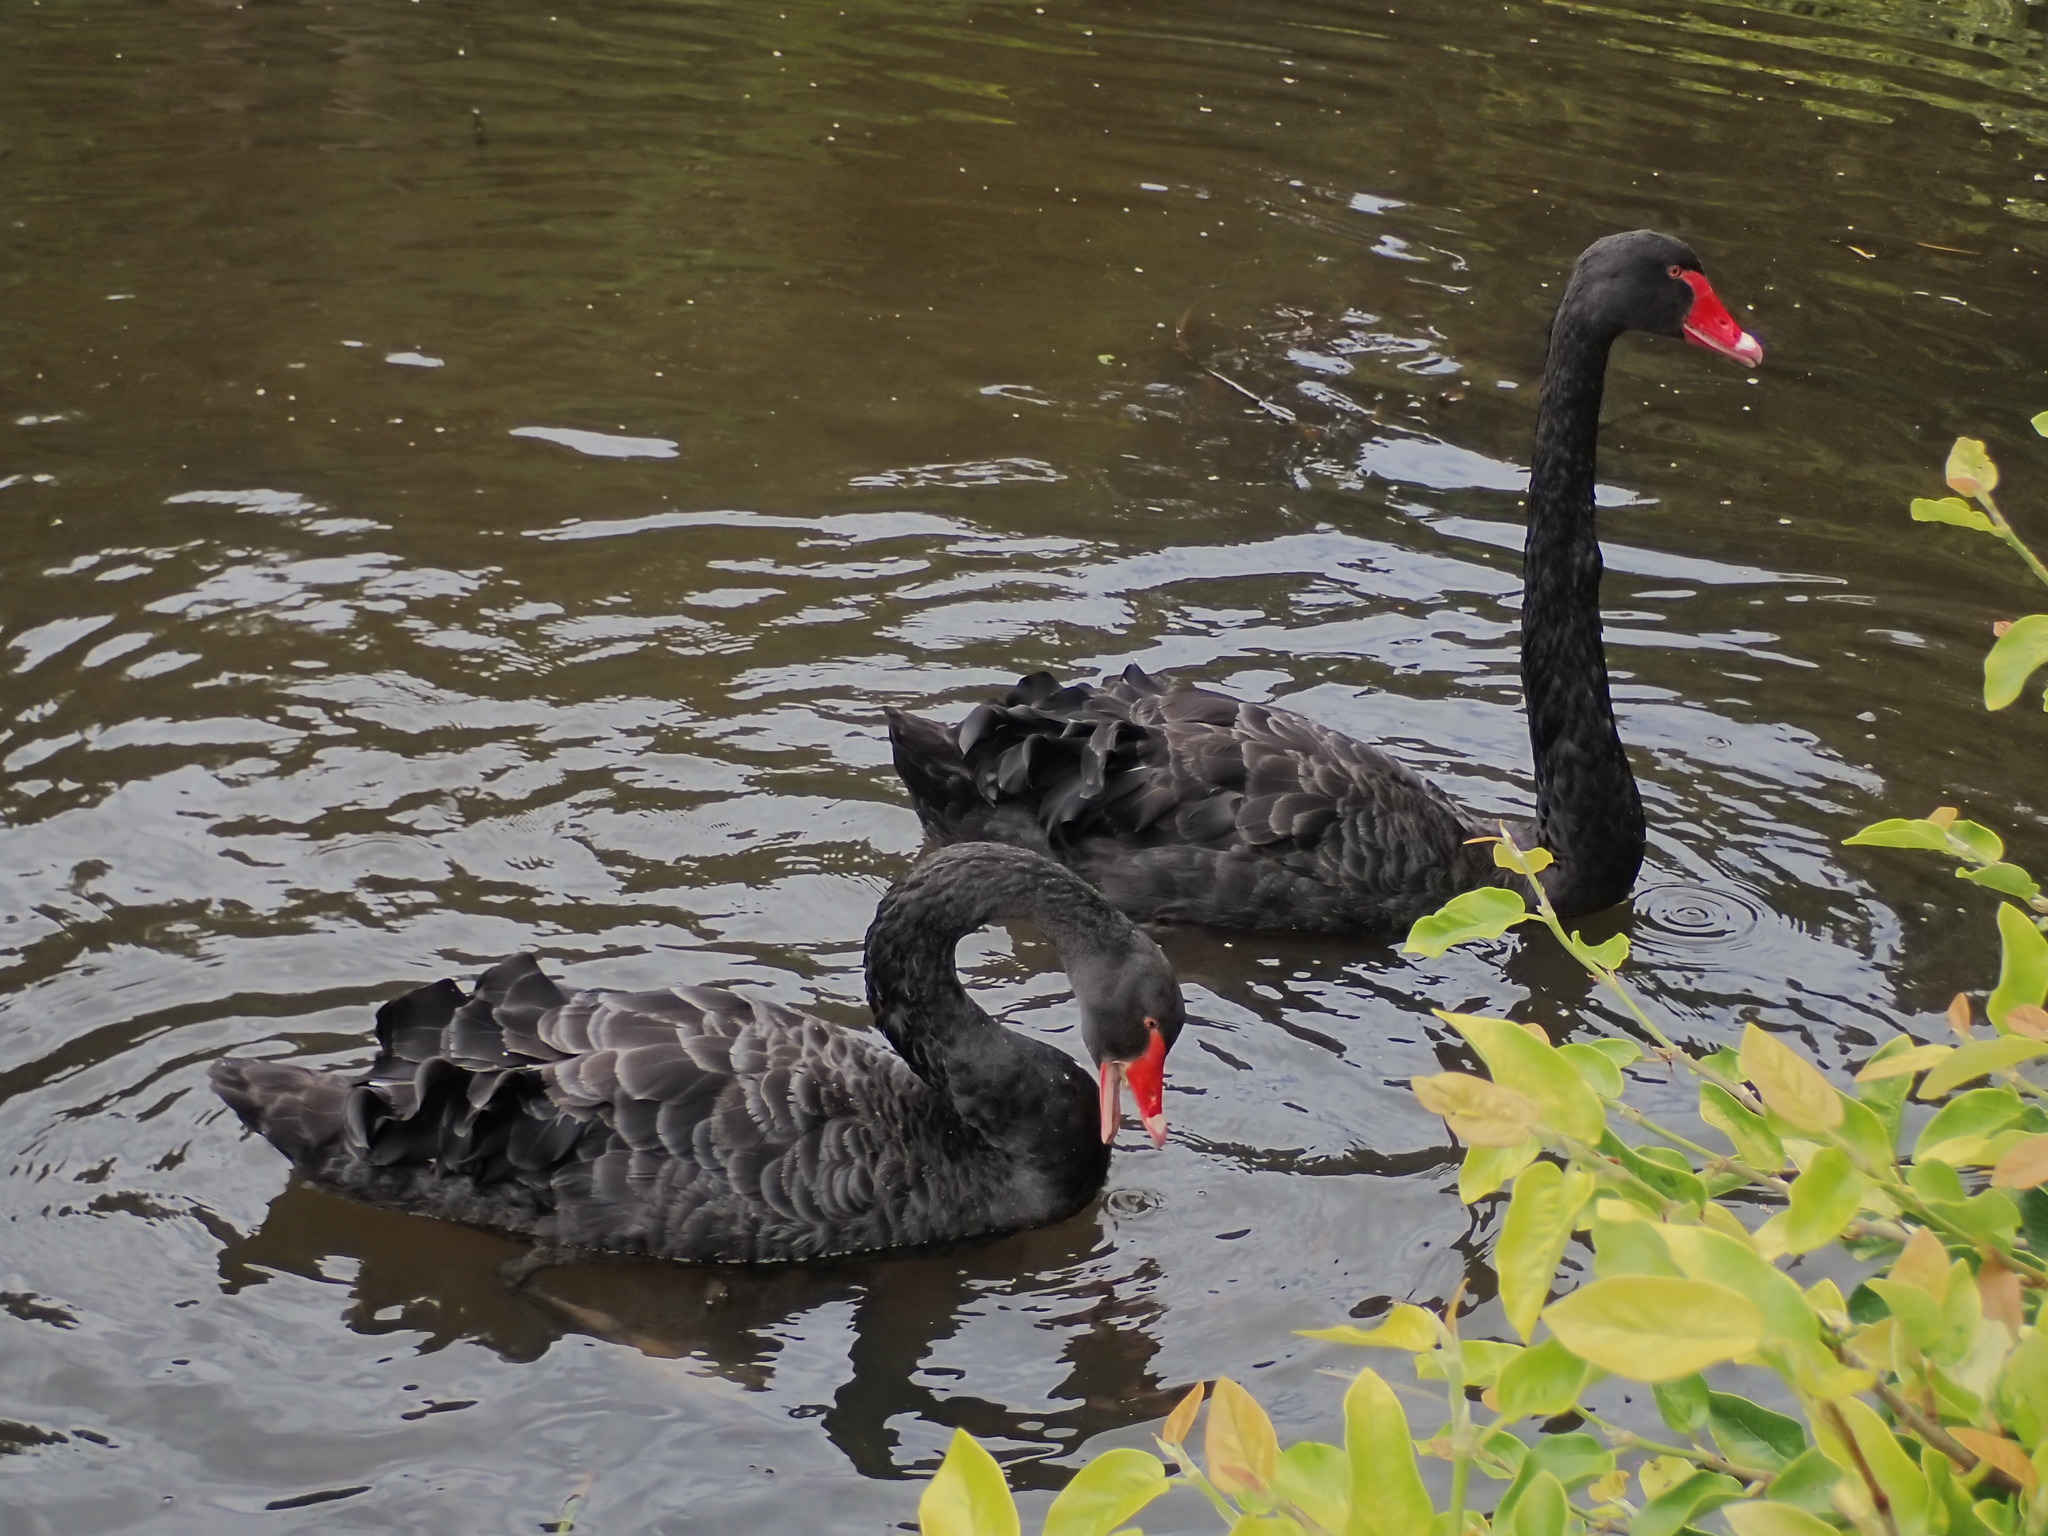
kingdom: Animalia
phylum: Chordata
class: Aves
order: Anseriformes
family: Anatidae
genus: Cygnus
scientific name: Cygnus atratus
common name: Black swan
